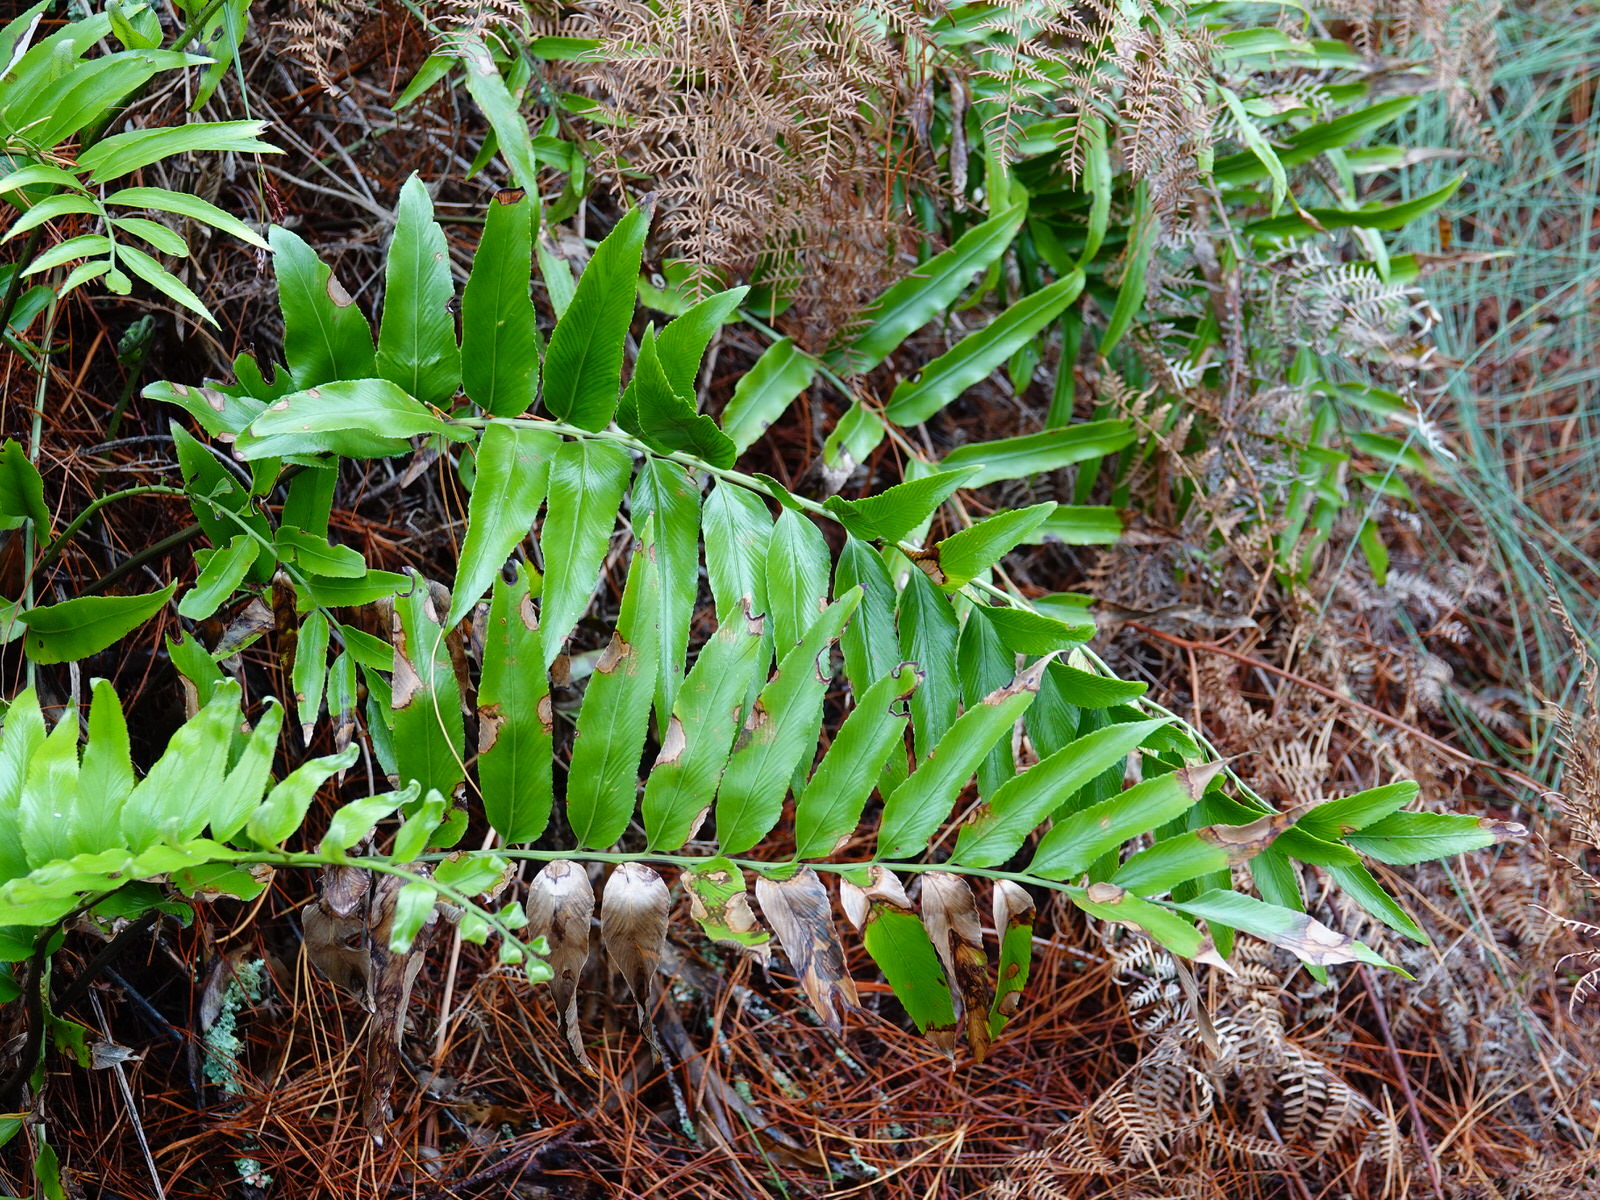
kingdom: Plantae
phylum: Tracheophyta
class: Polypodiopsida
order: Polypodiales
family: Aspleniaceae
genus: Asplenium
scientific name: Asplenium oblongifolium
